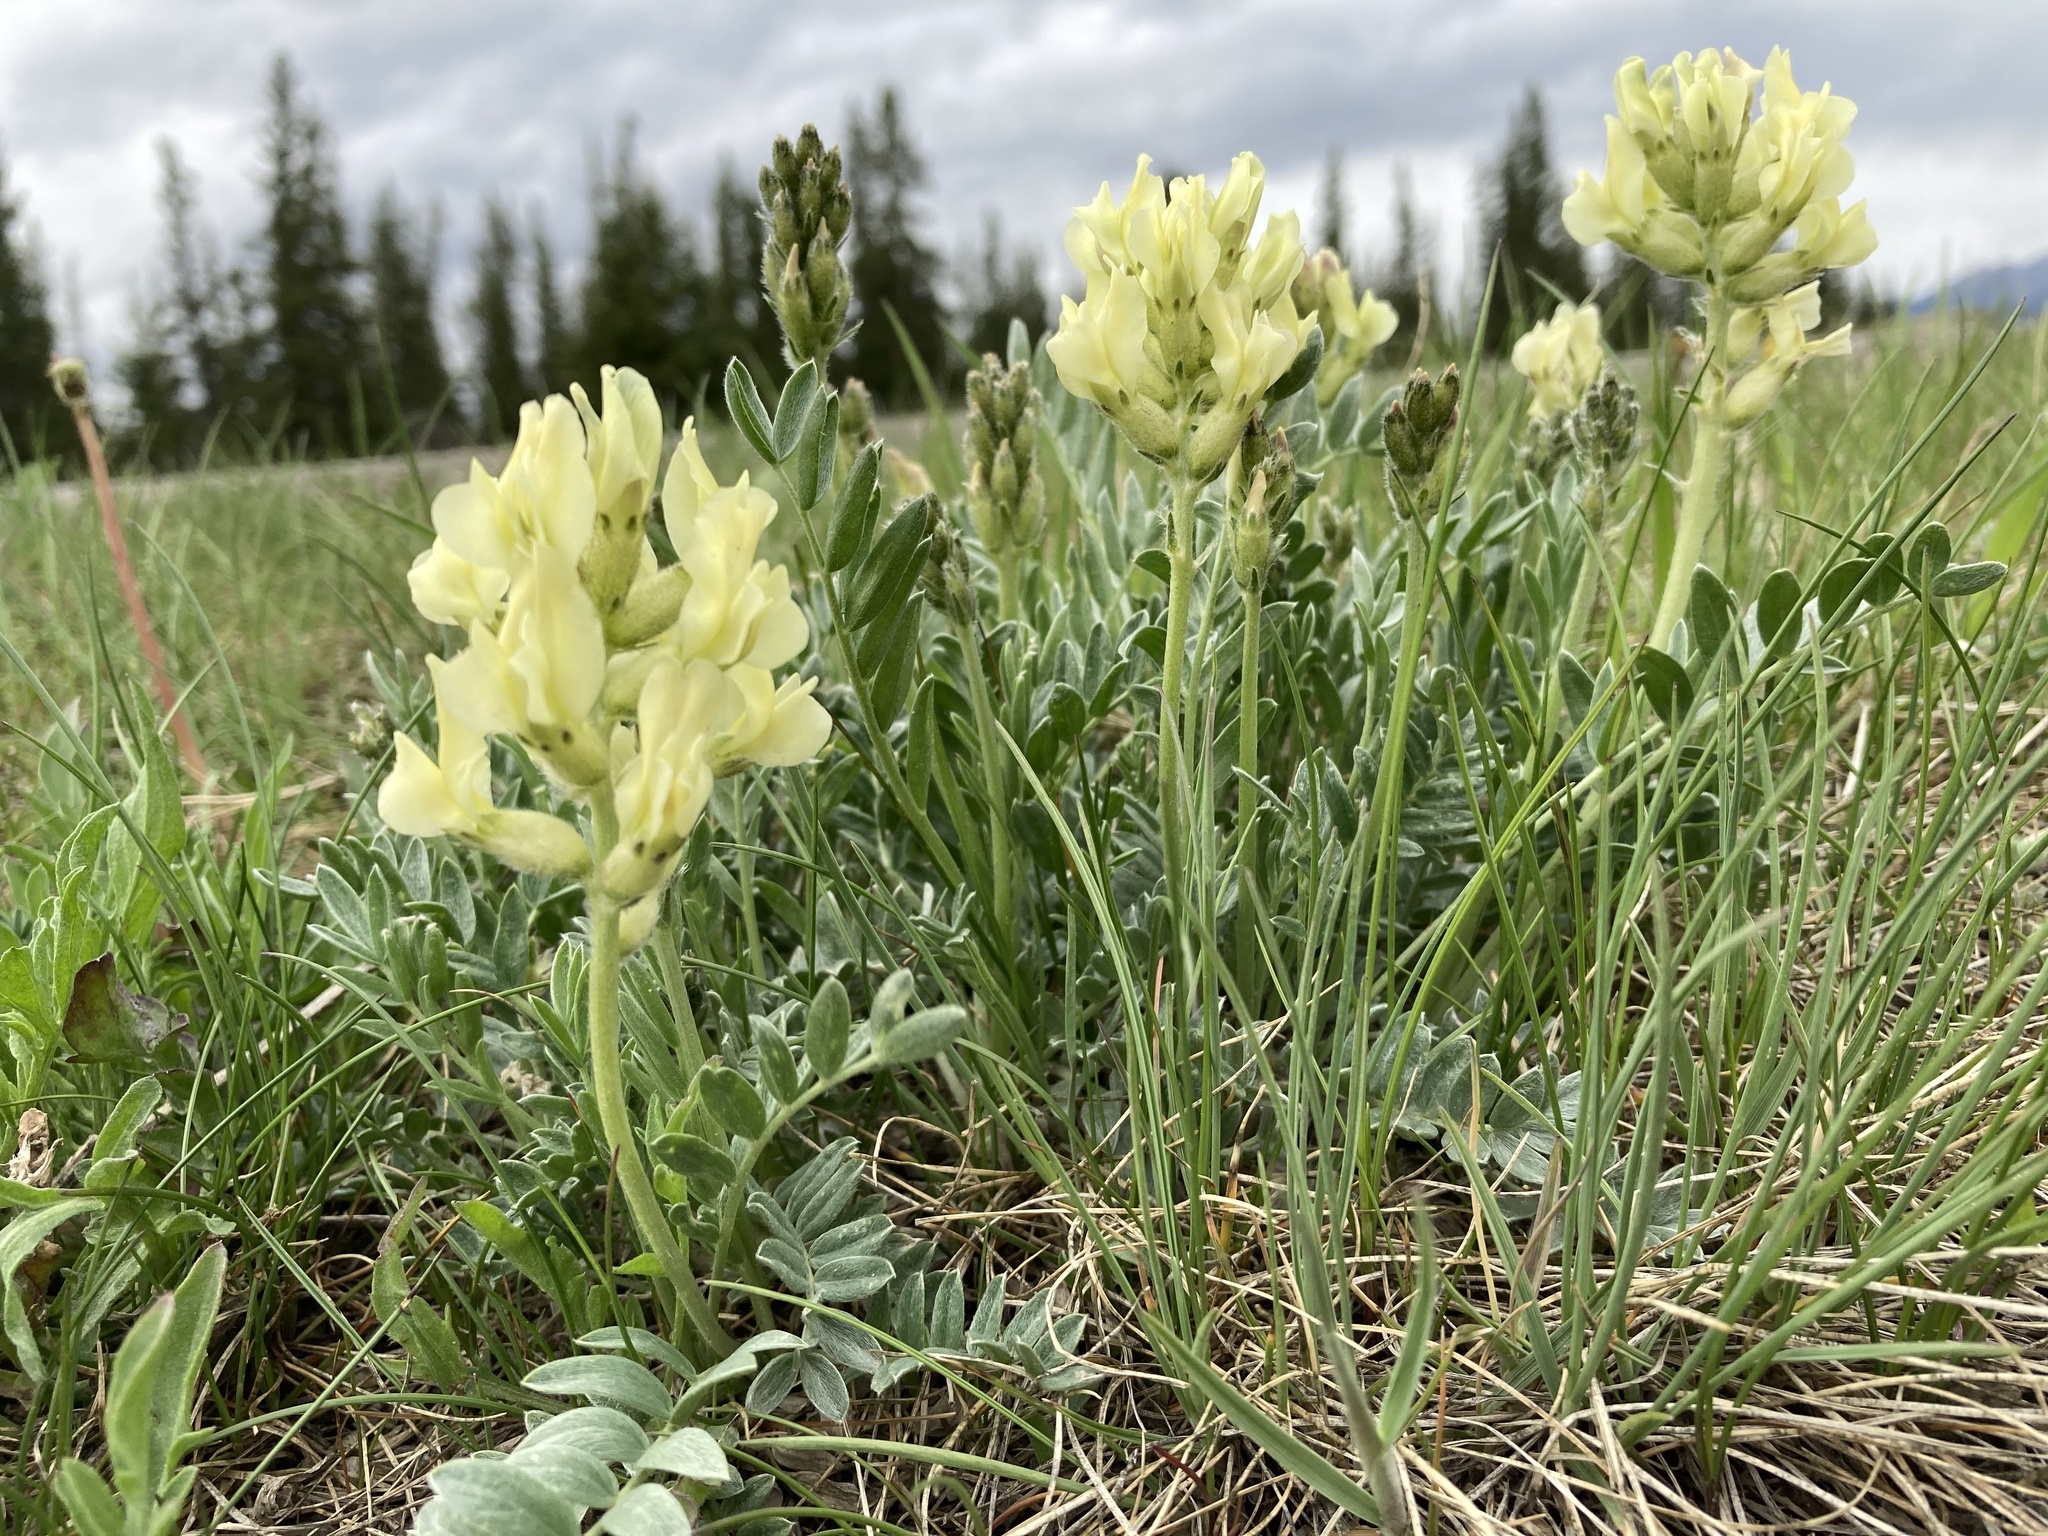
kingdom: Plantae
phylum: Tracheophyta
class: Magnoliopsida
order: Fabales
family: Fabaceae
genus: Oxytropis
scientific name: Oxytropis sericea
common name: Silky locoweed
